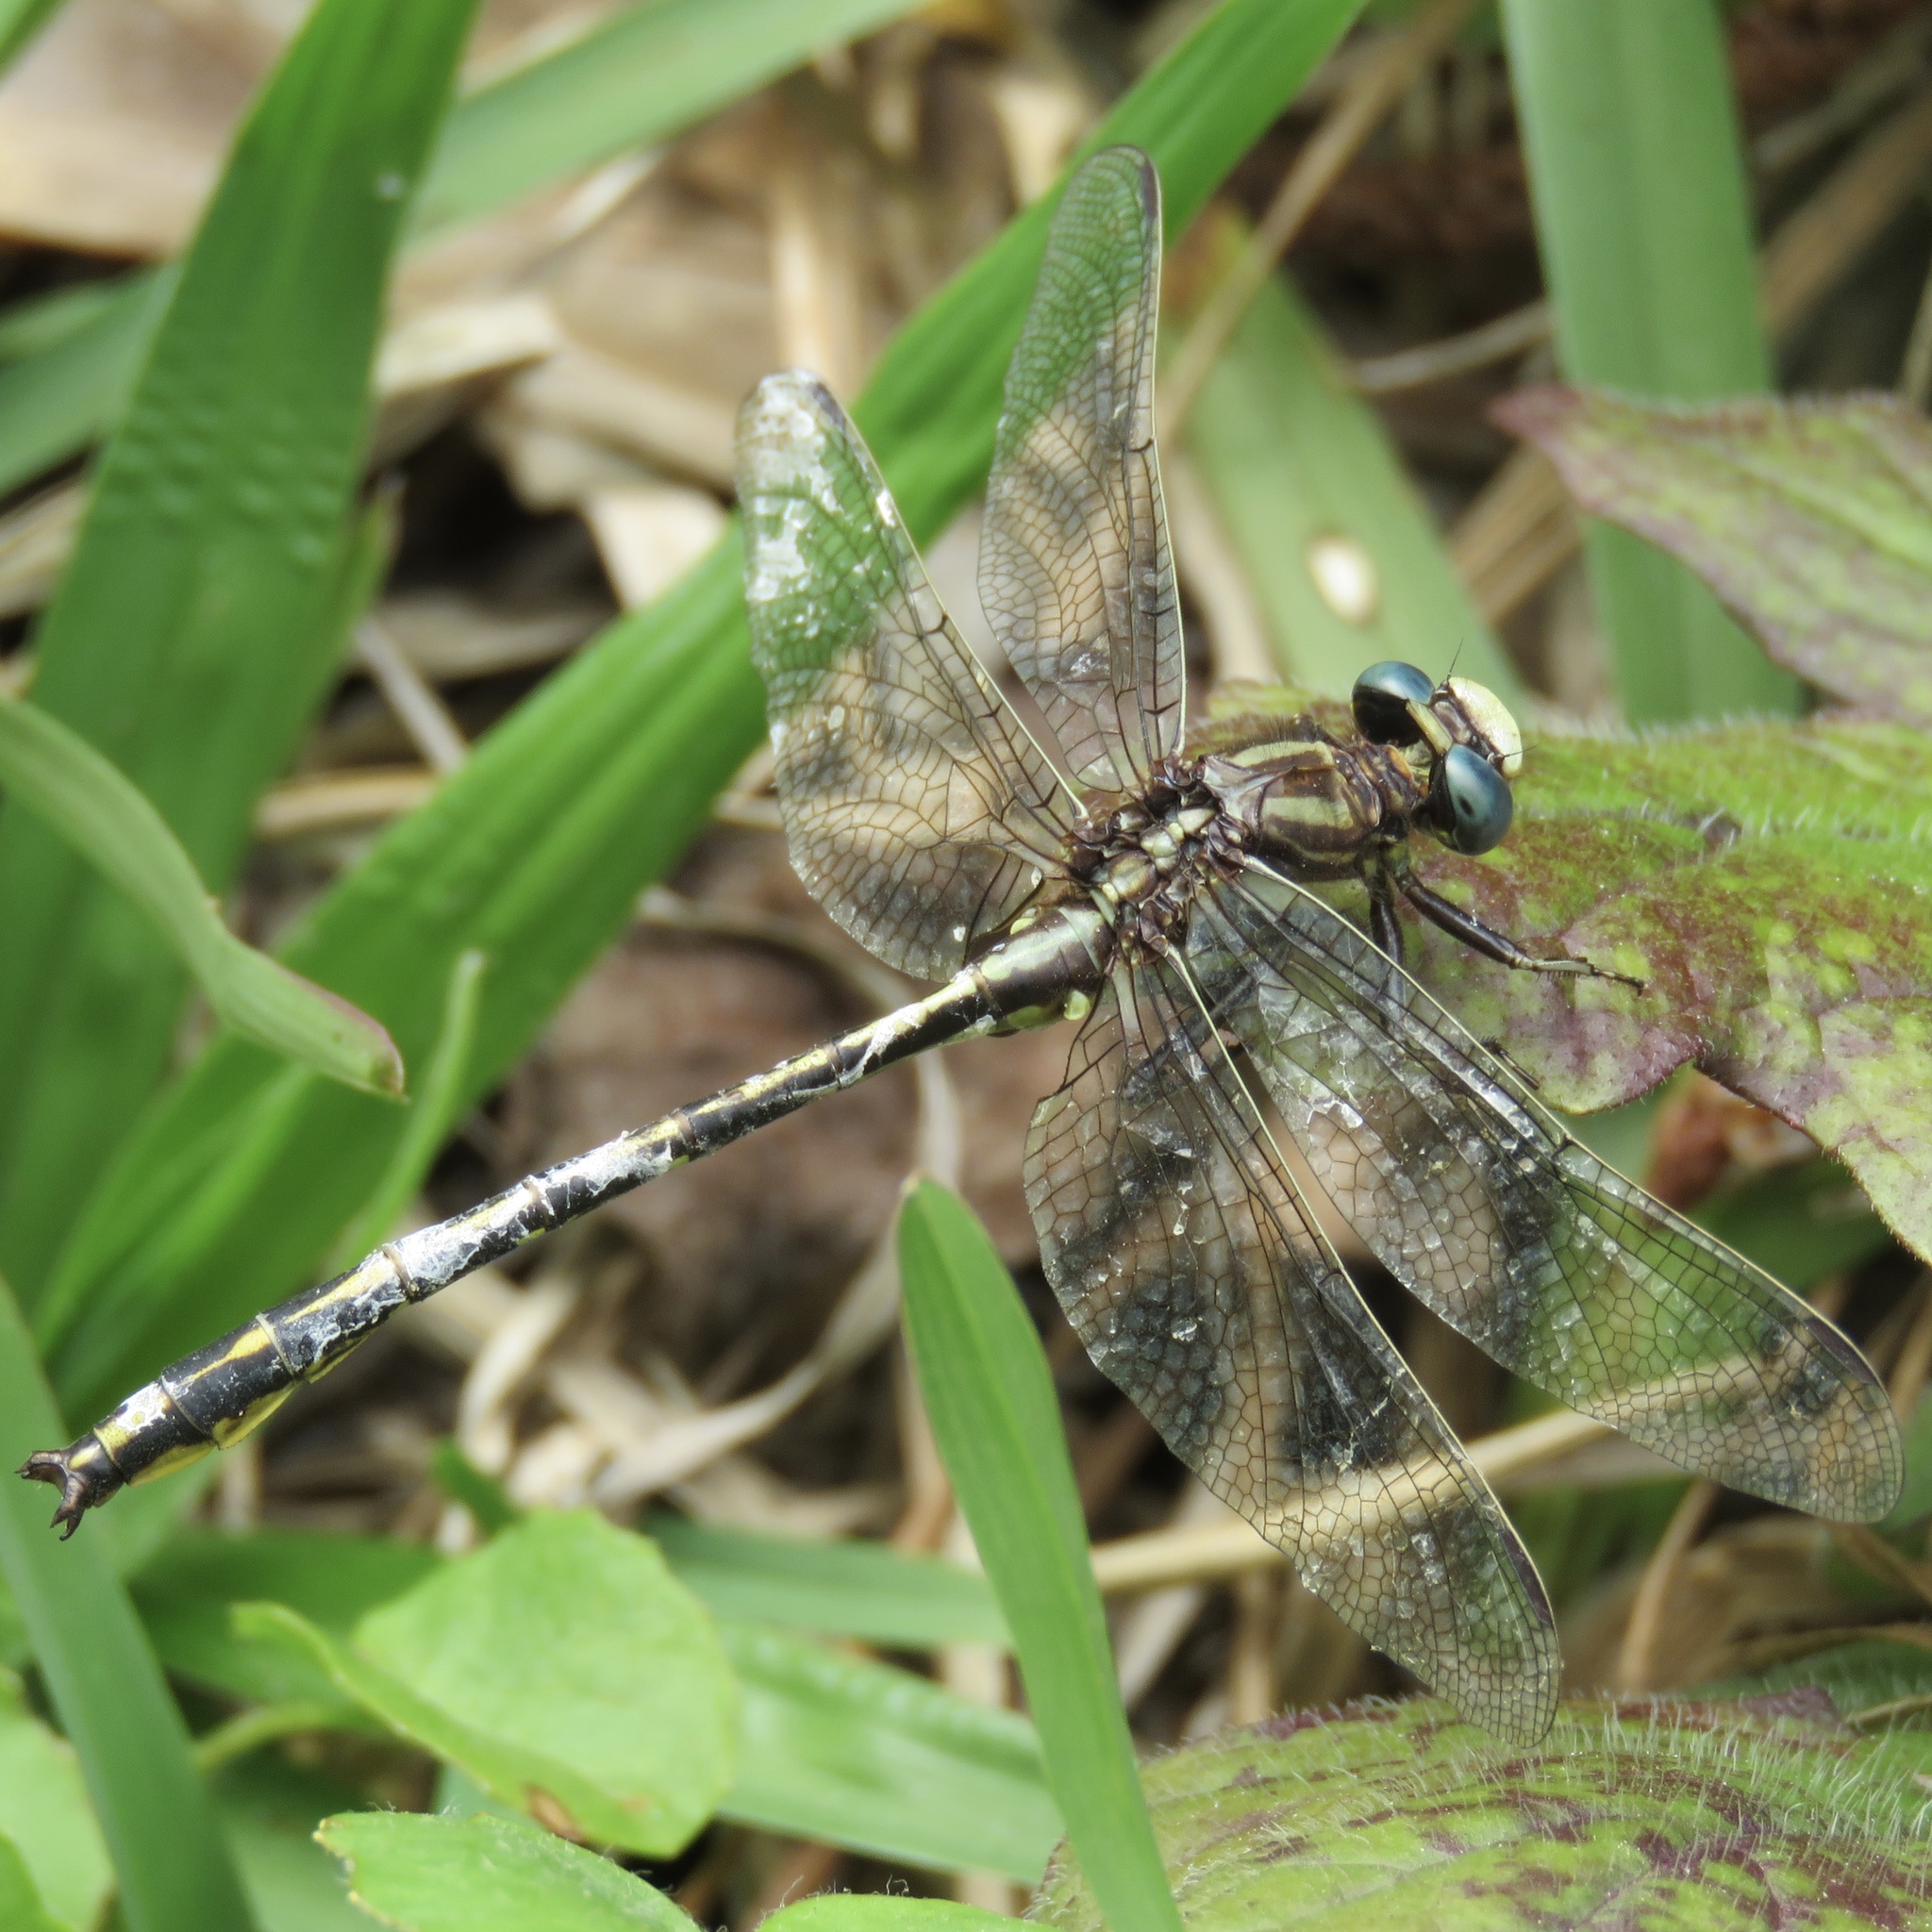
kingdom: Animalia
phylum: Arthropoda
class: Insecta
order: Odonata
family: Gomphidae
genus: Phanogomphus
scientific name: Phanogomphus oklahomensis
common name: Oklahoma clubtail
